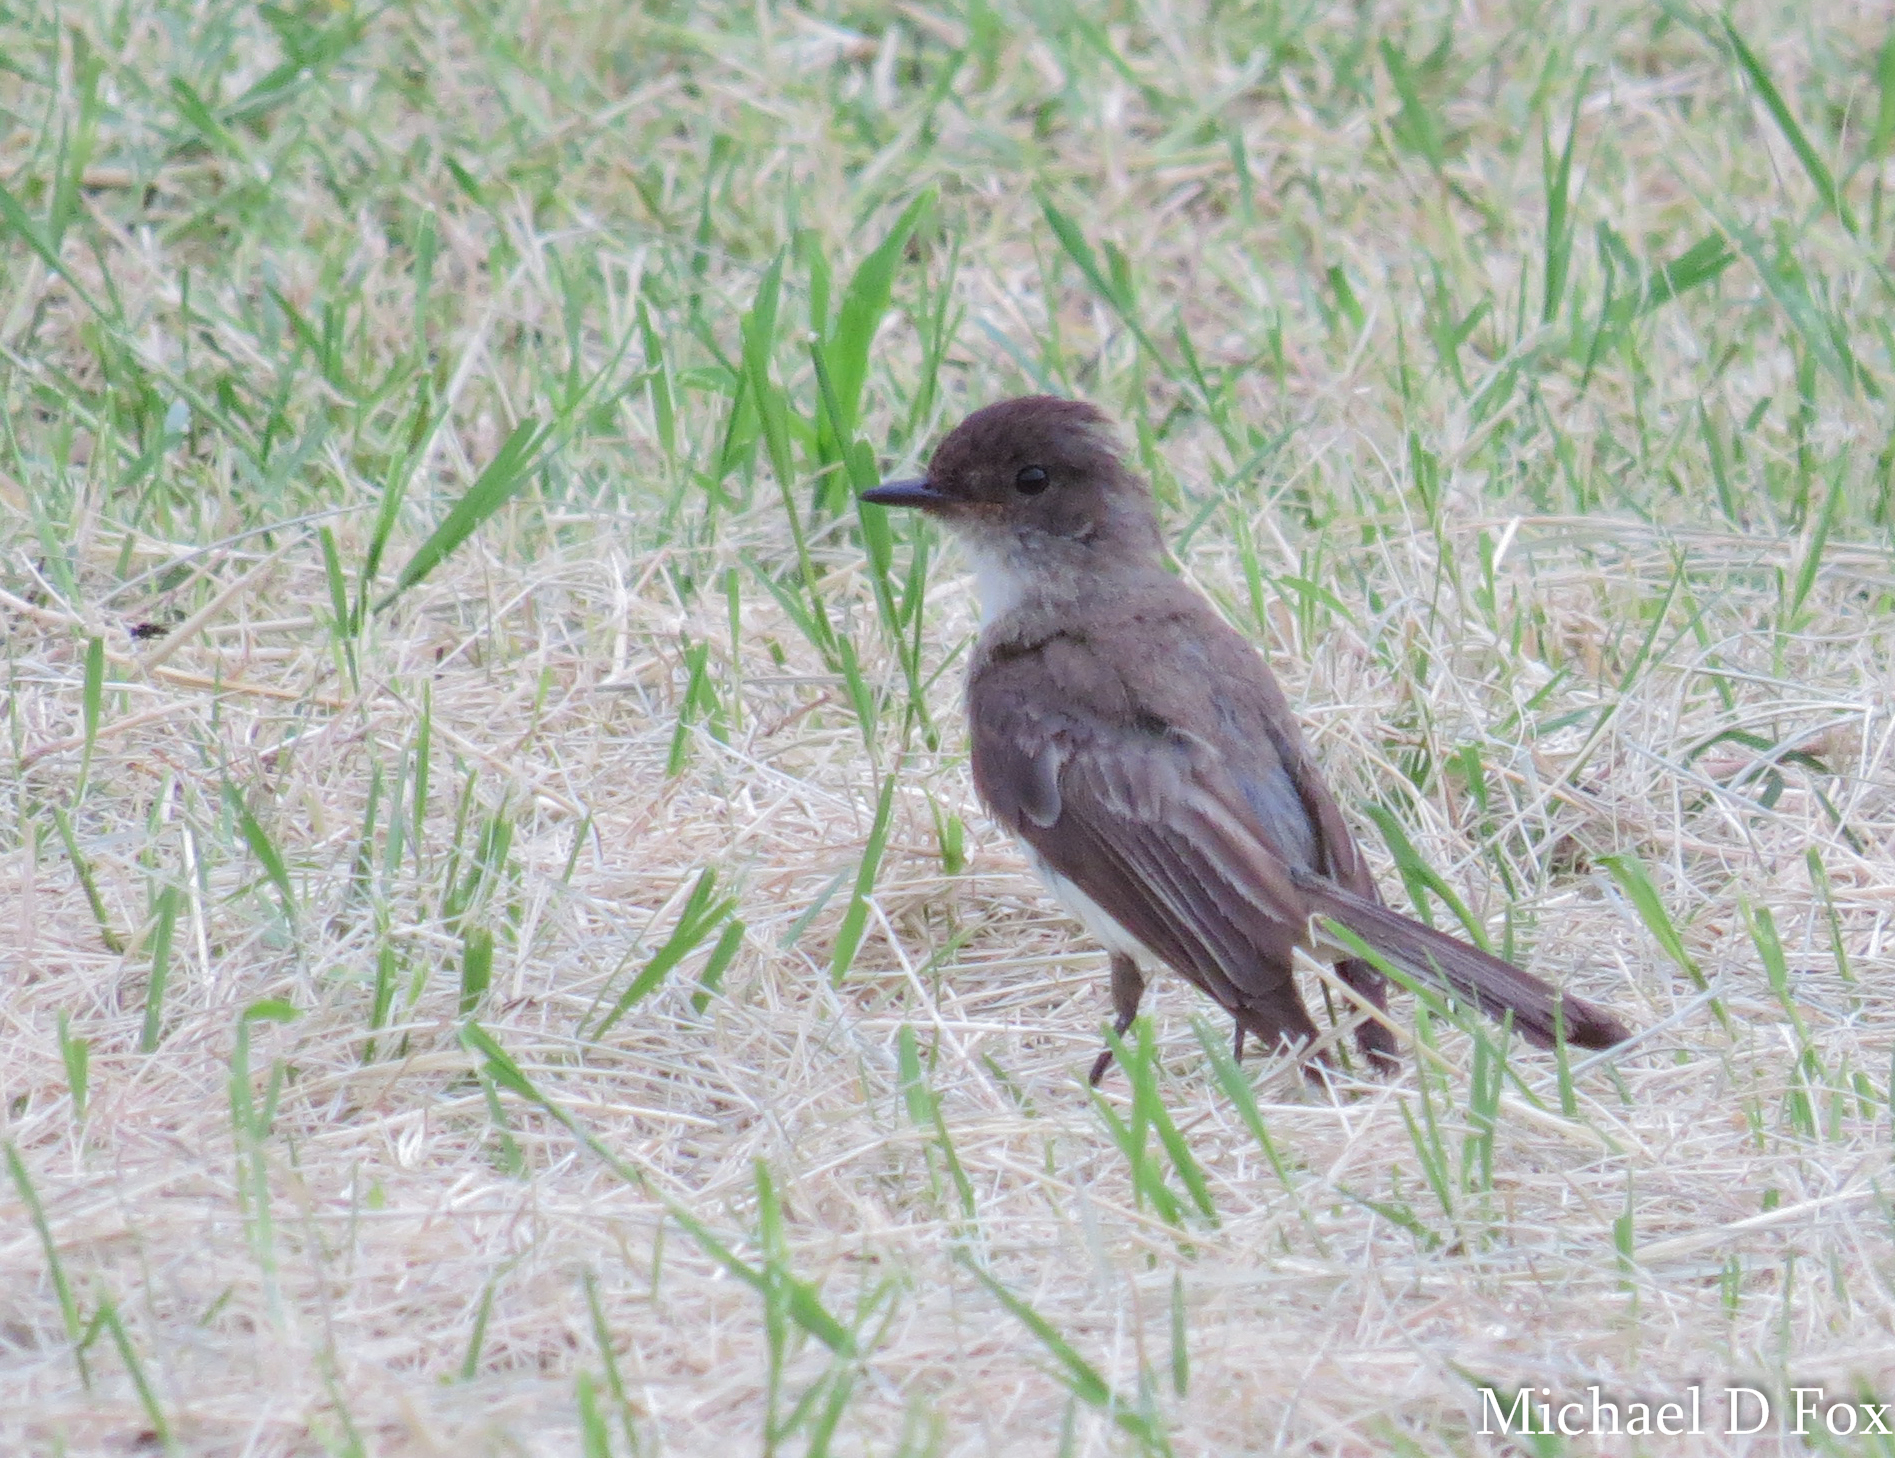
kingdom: Animalia
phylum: Chordata
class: Aves
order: Passeriformes
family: Tyrannidae
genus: Sayornis
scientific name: Sayornis phoebe
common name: Eastern phoebe
